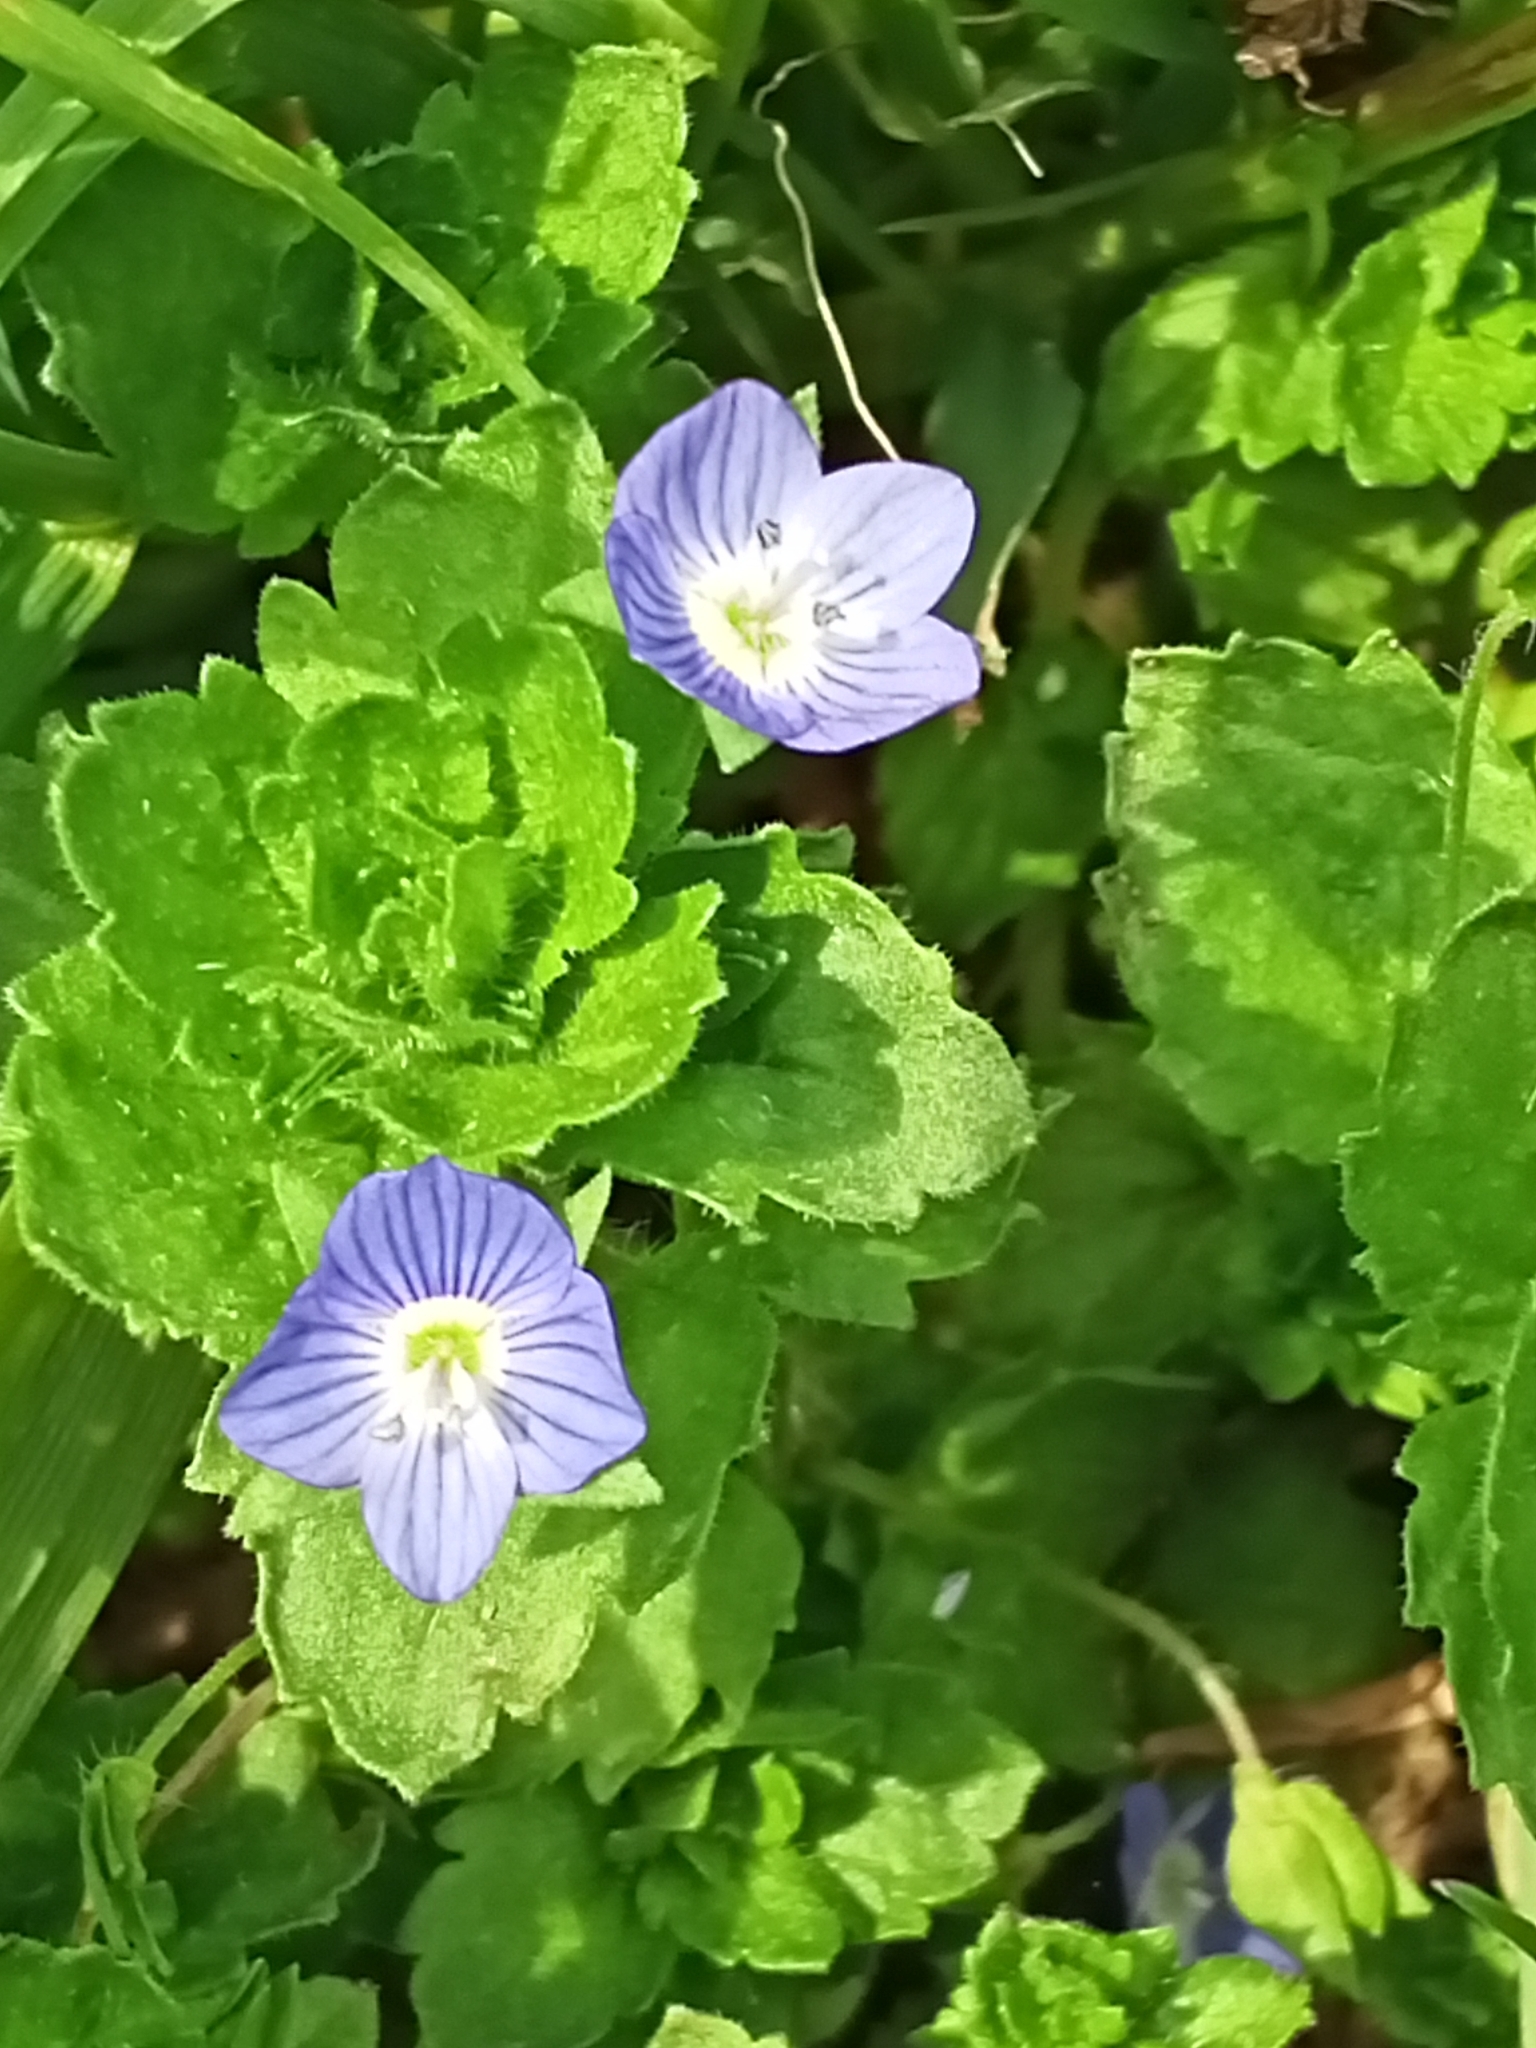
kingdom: Plantae
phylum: Tracheophyta
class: Magnoliopsida
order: Lamiales
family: Plantaginaceae
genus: Veronica
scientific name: Veronica persica
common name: Common field-speedwell
